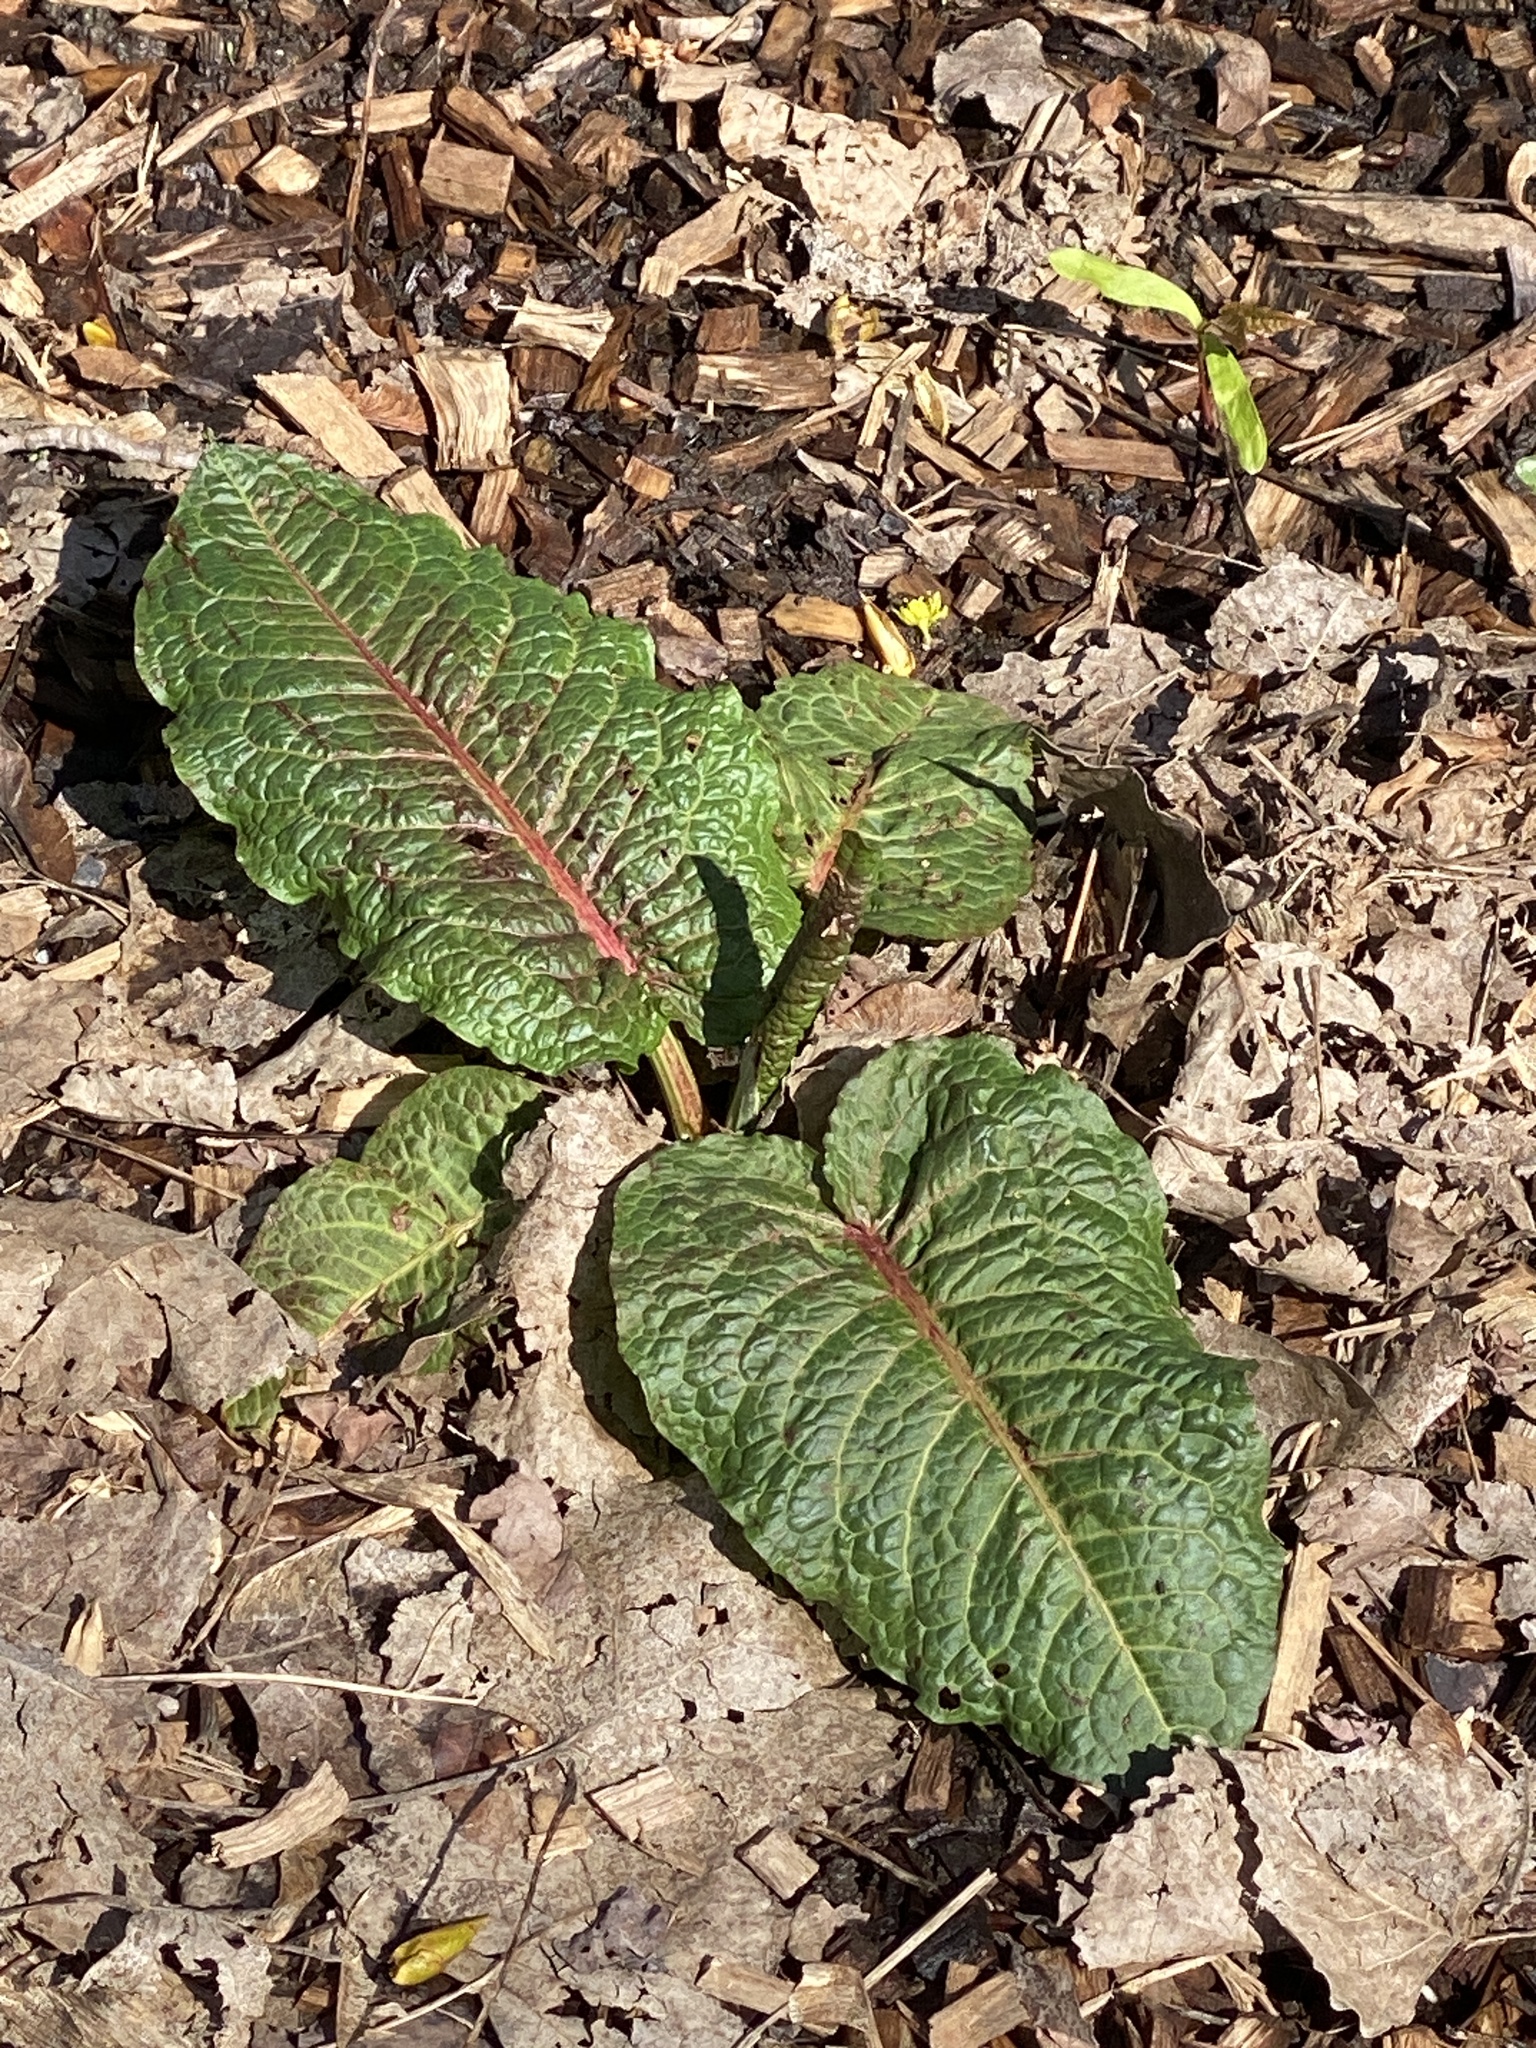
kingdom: Plantae
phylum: Tracheophyta
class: Magnoliopsida
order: Caryophyllales
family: Polygonaceae
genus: Rumex
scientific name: Rumex obtusifolius
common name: Bitter dock
